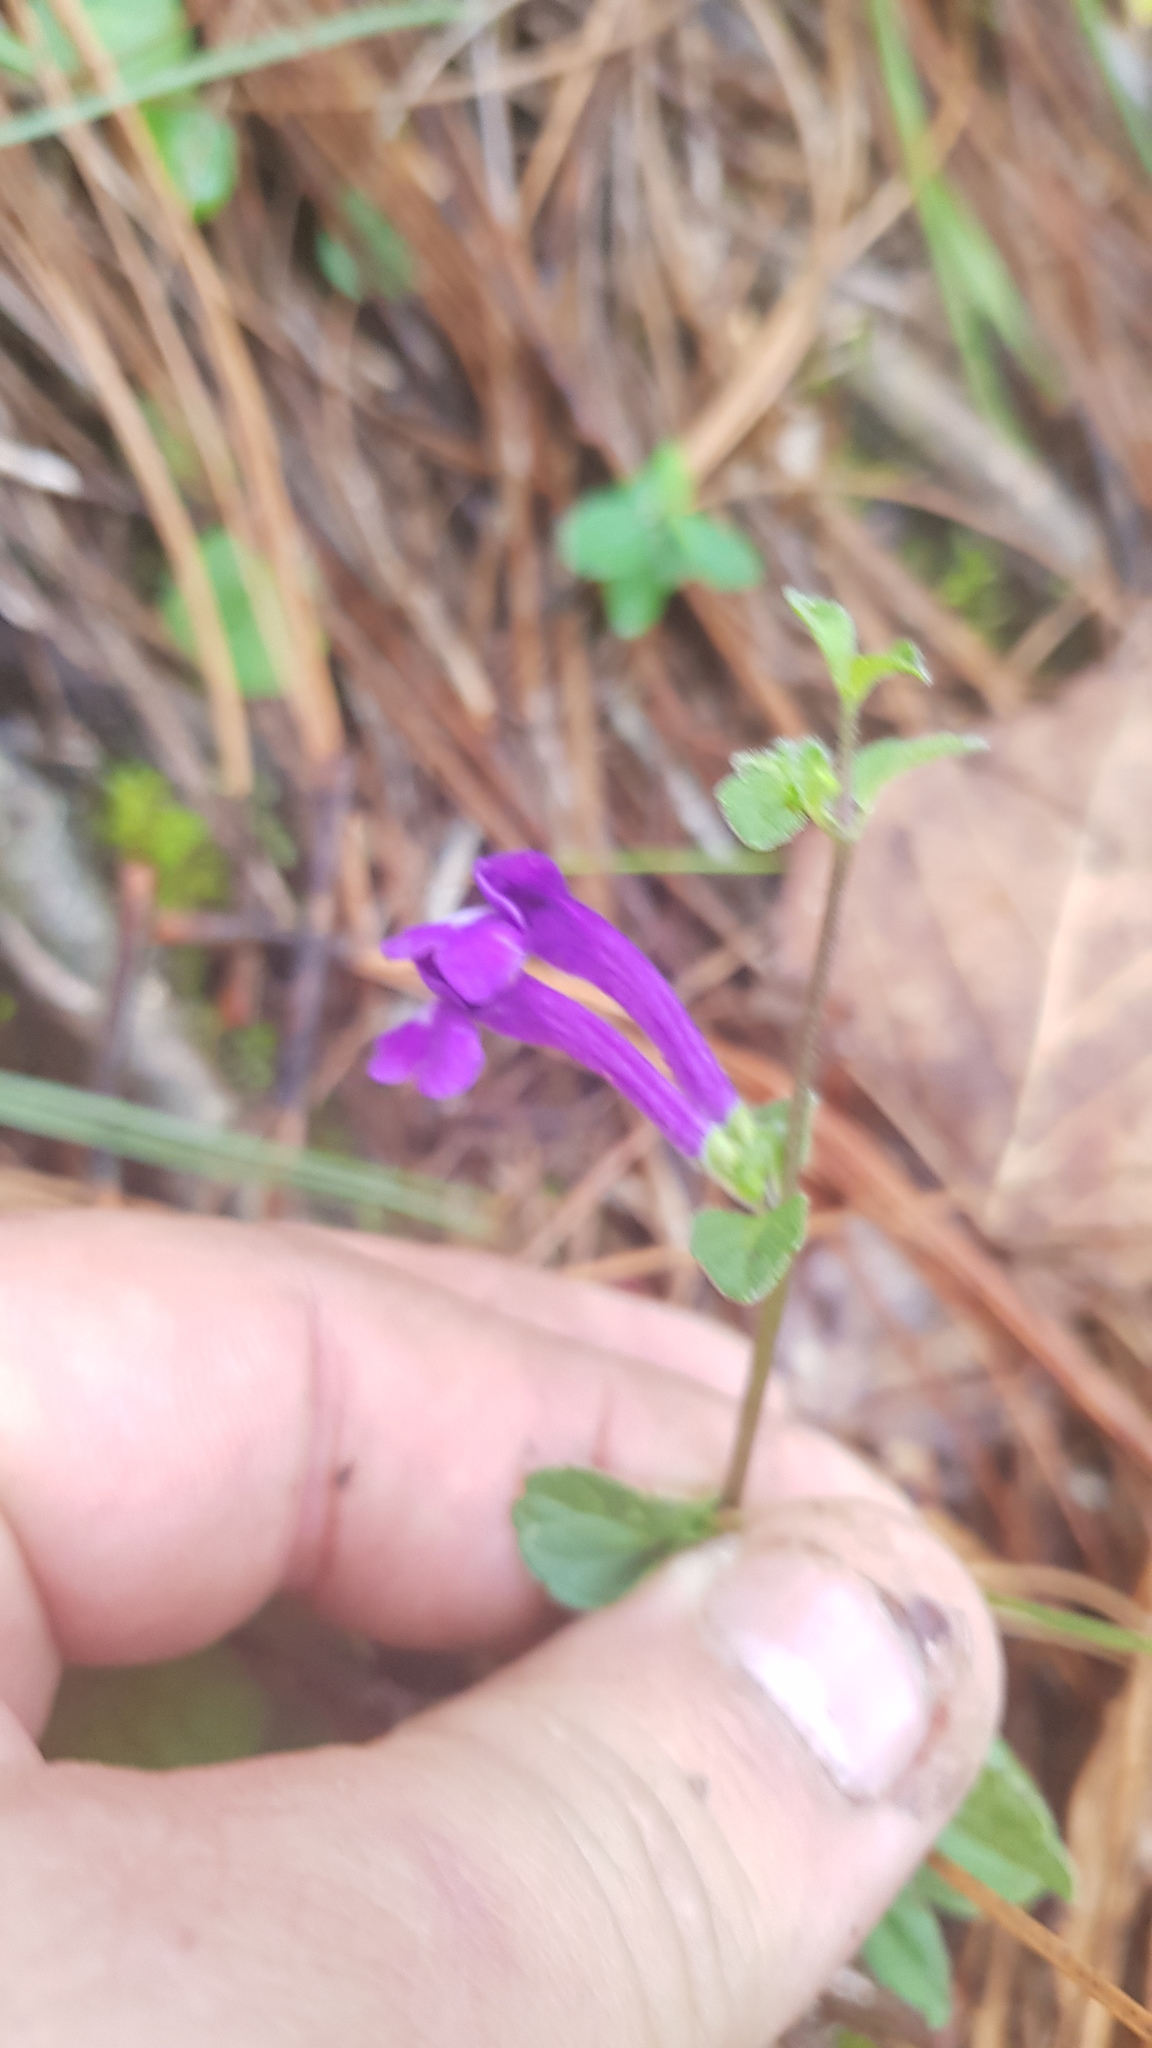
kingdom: Plantae
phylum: Tracheophyta
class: Magnoliopsida
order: Lamiales
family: Lamiaceae
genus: Scutellaria
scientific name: Scutellaria dumetorum
